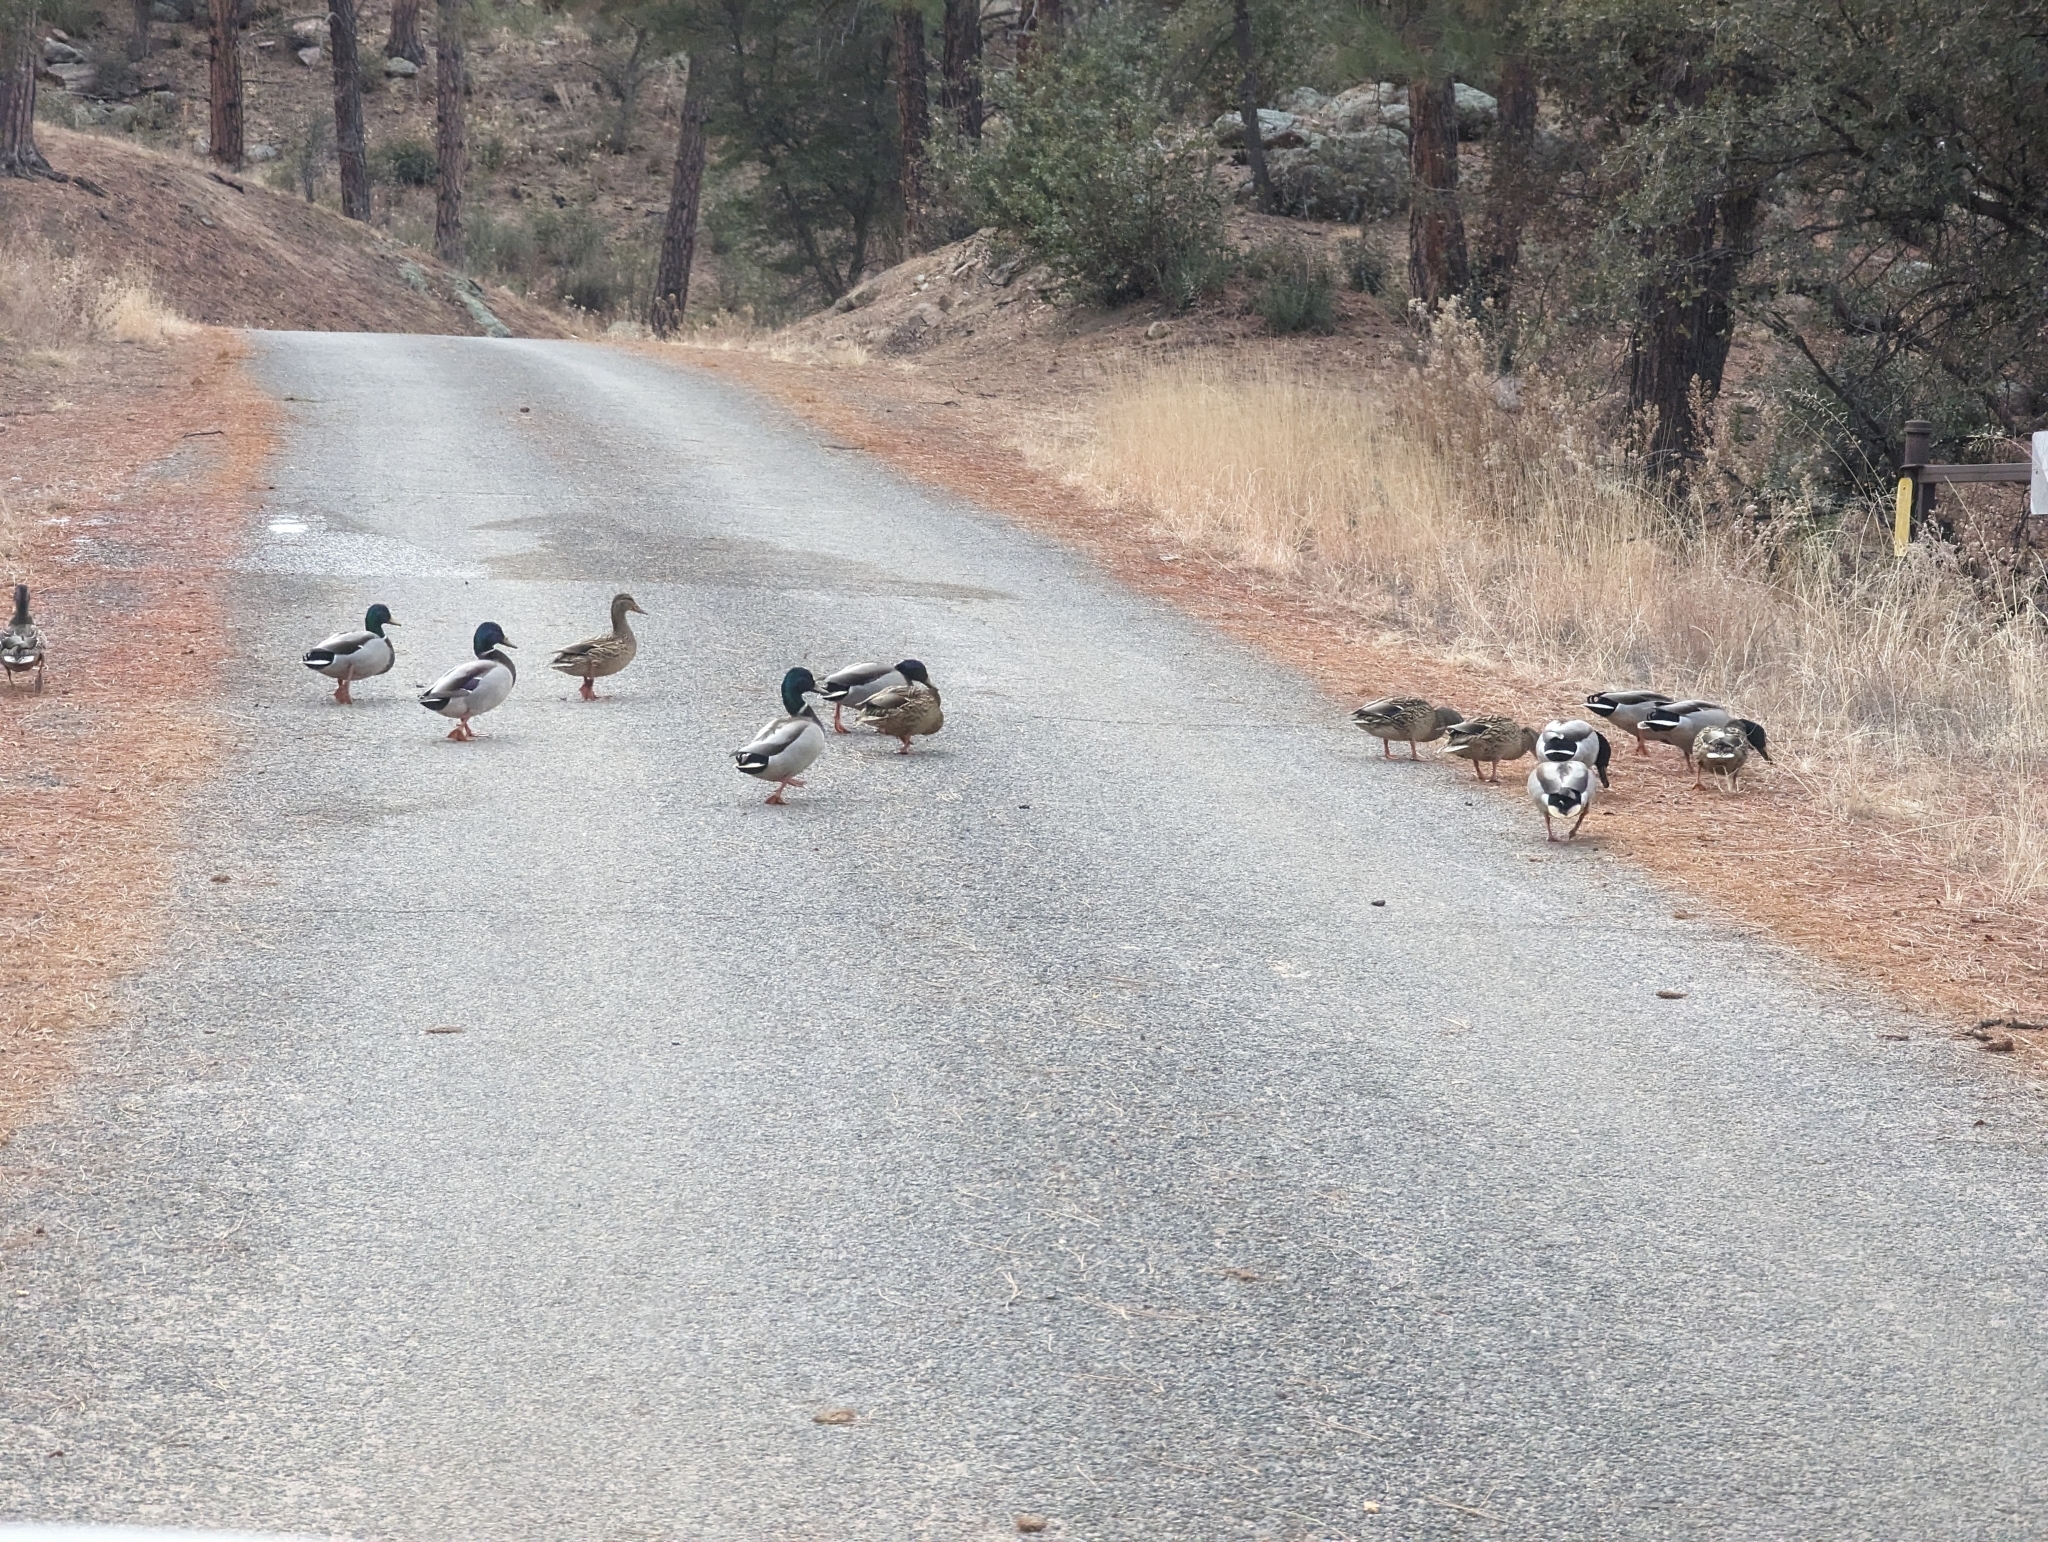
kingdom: Animalia
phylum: Chordata
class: Aves
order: Anseriformes
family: Anatidae
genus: Anas
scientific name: Anas platyrhynchos
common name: Mallard
